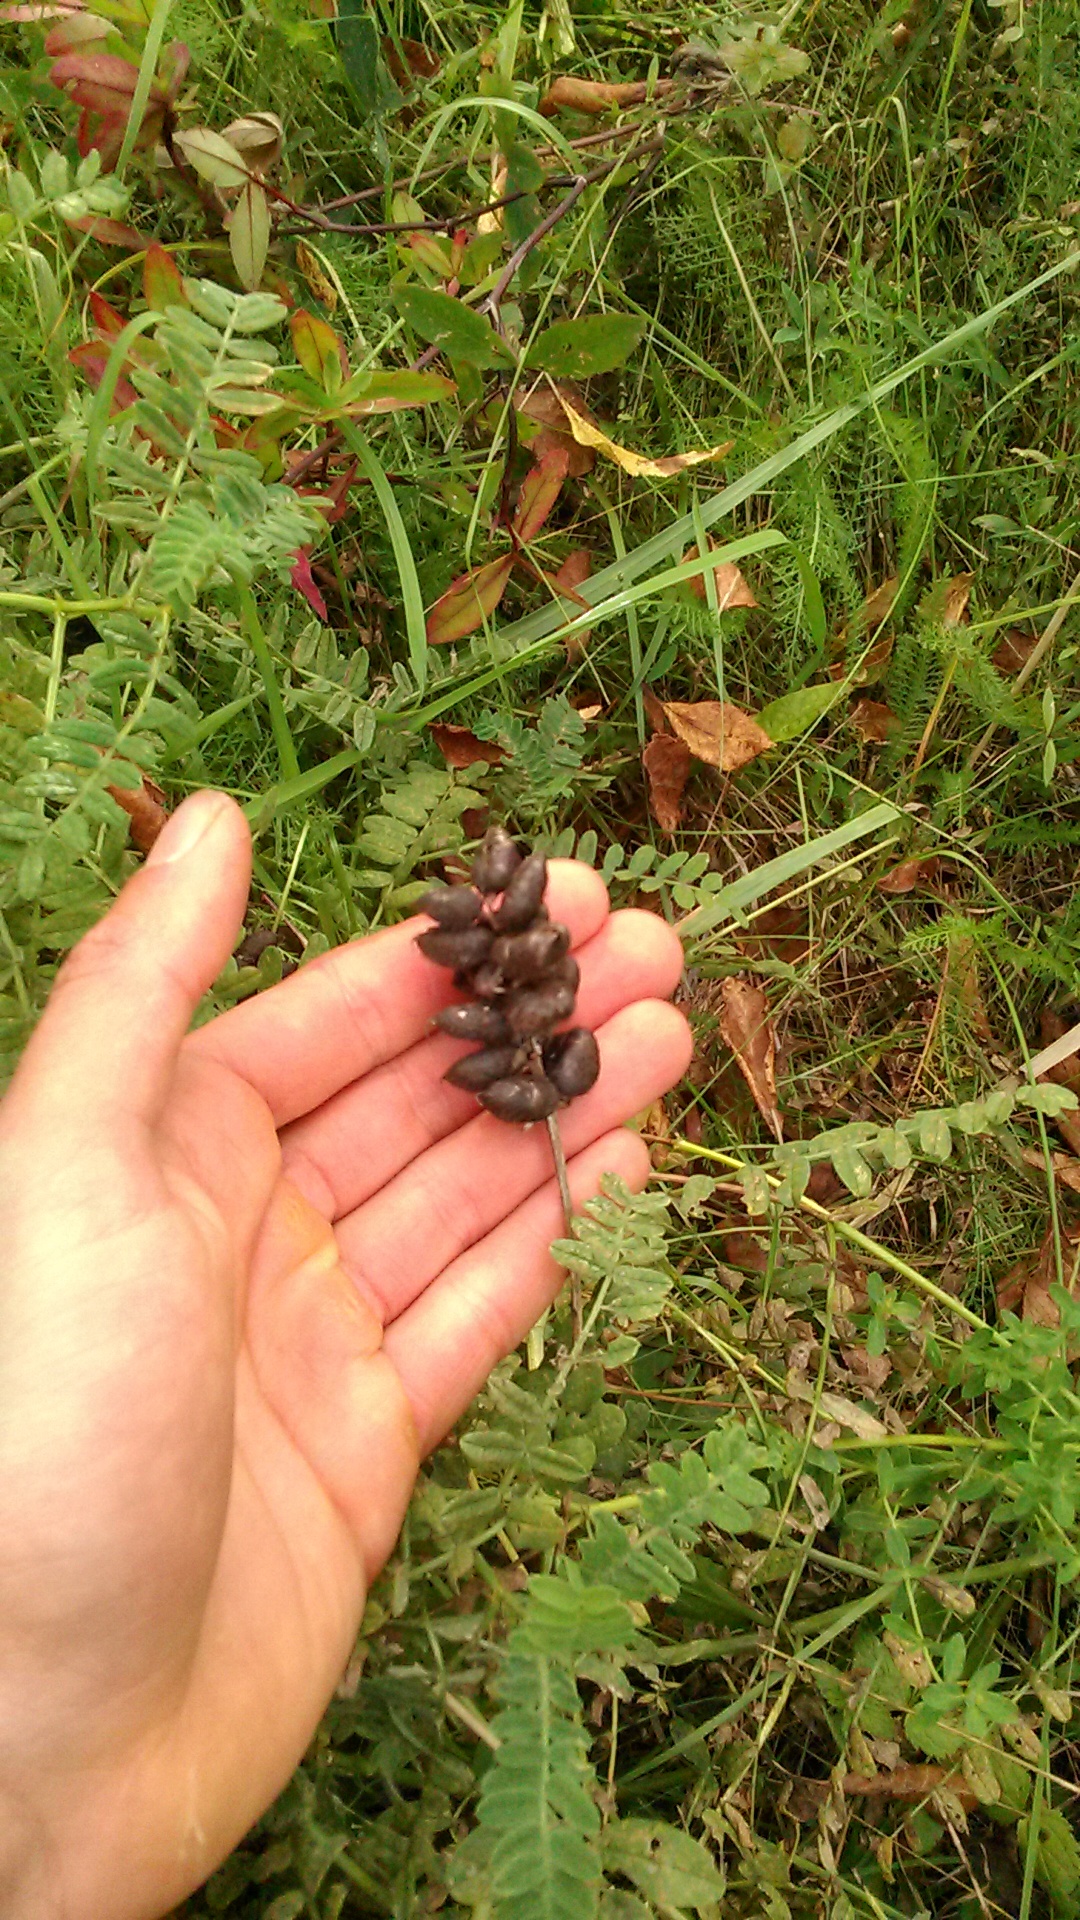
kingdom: Plantae
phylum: Tracheophyta
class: Magnoliopsida
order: Fabales
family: Fabaceae
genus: Astragalus
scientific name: Astragalus cicer
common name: Chick-pea milk-vetch
